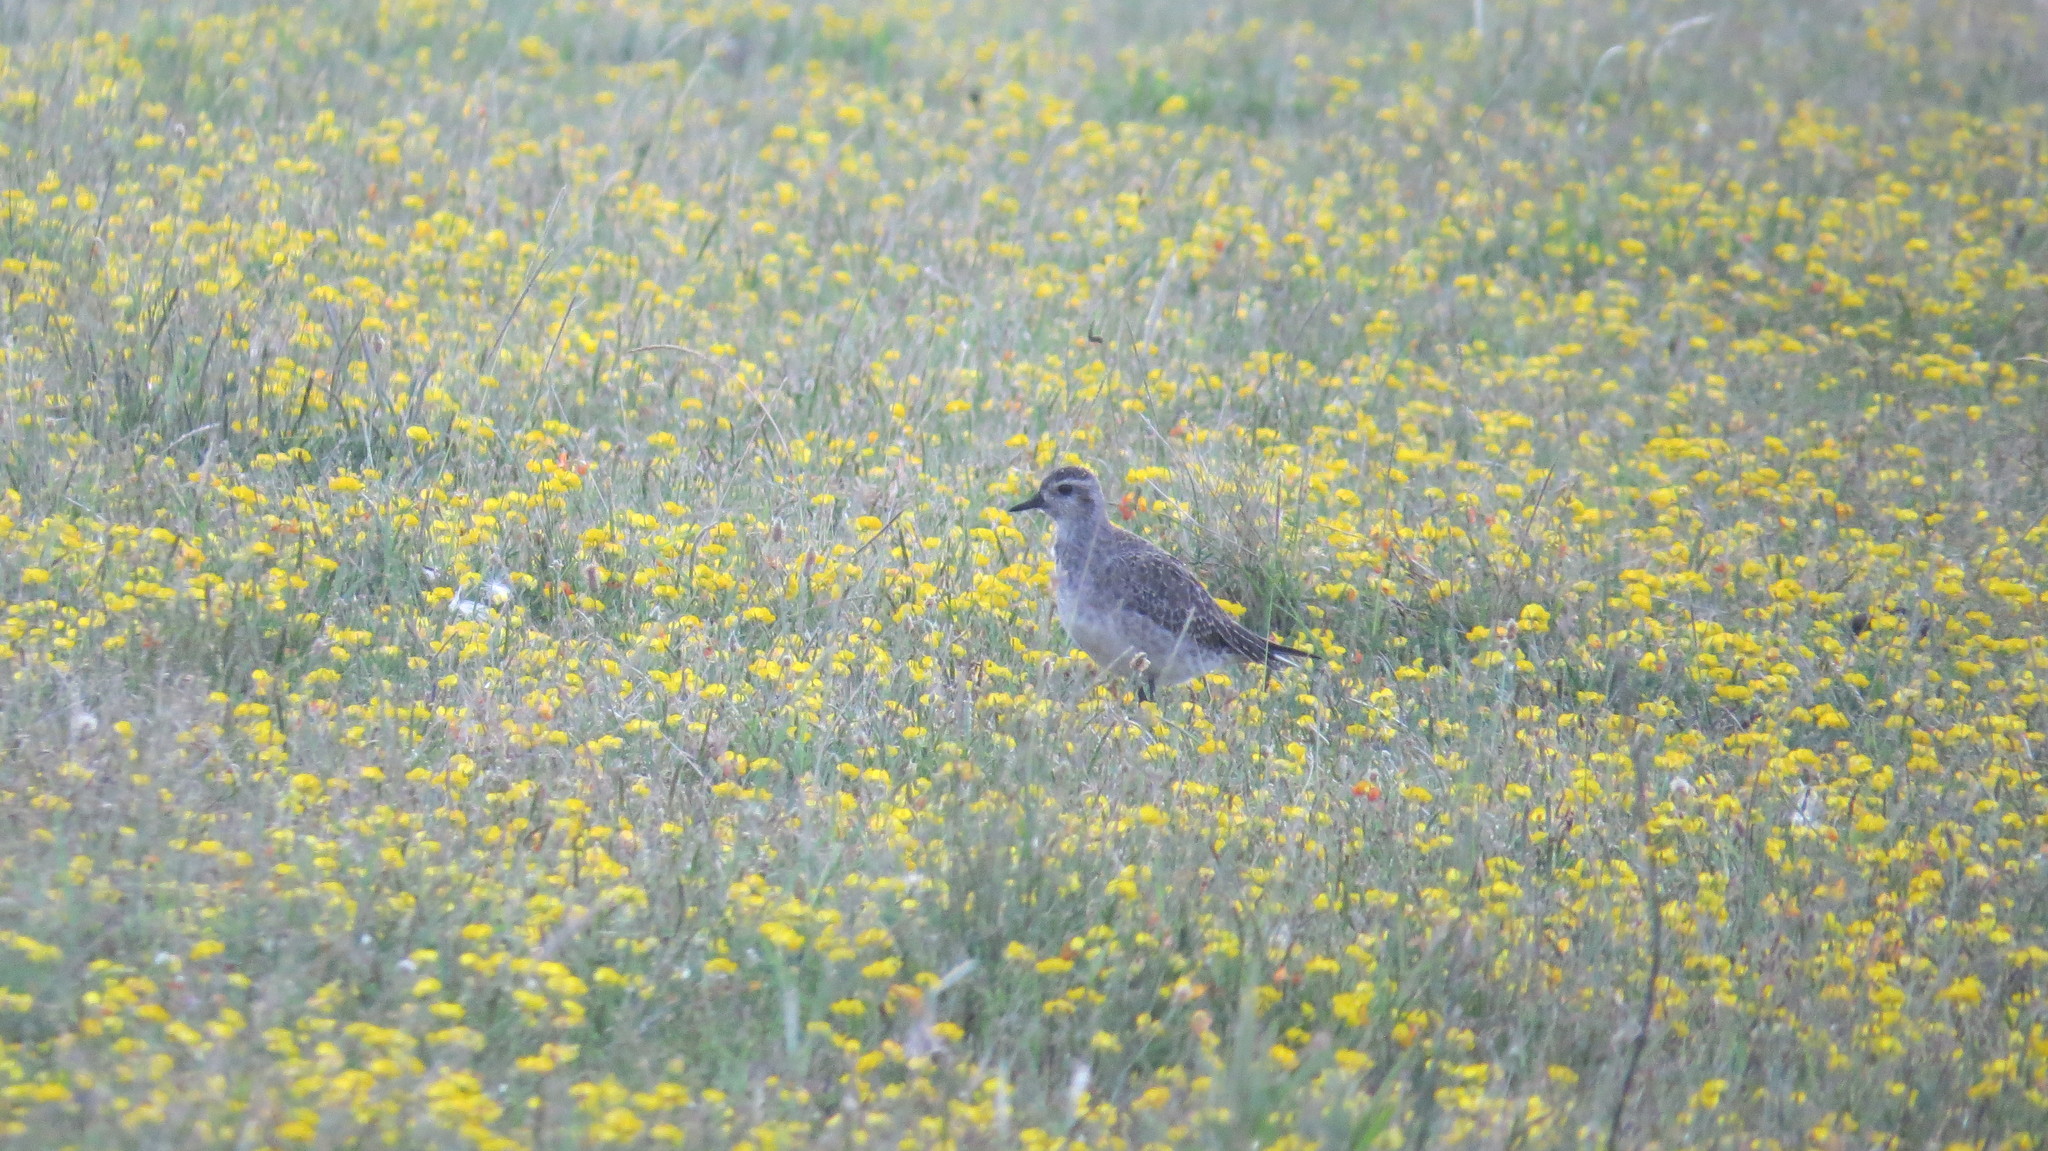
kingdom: Animalia
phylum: Chordata
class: Aves
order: Charadriiformes
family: Charadriidae
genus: Pluvialis
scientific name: Pluvialis dominica
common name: American golden plover
